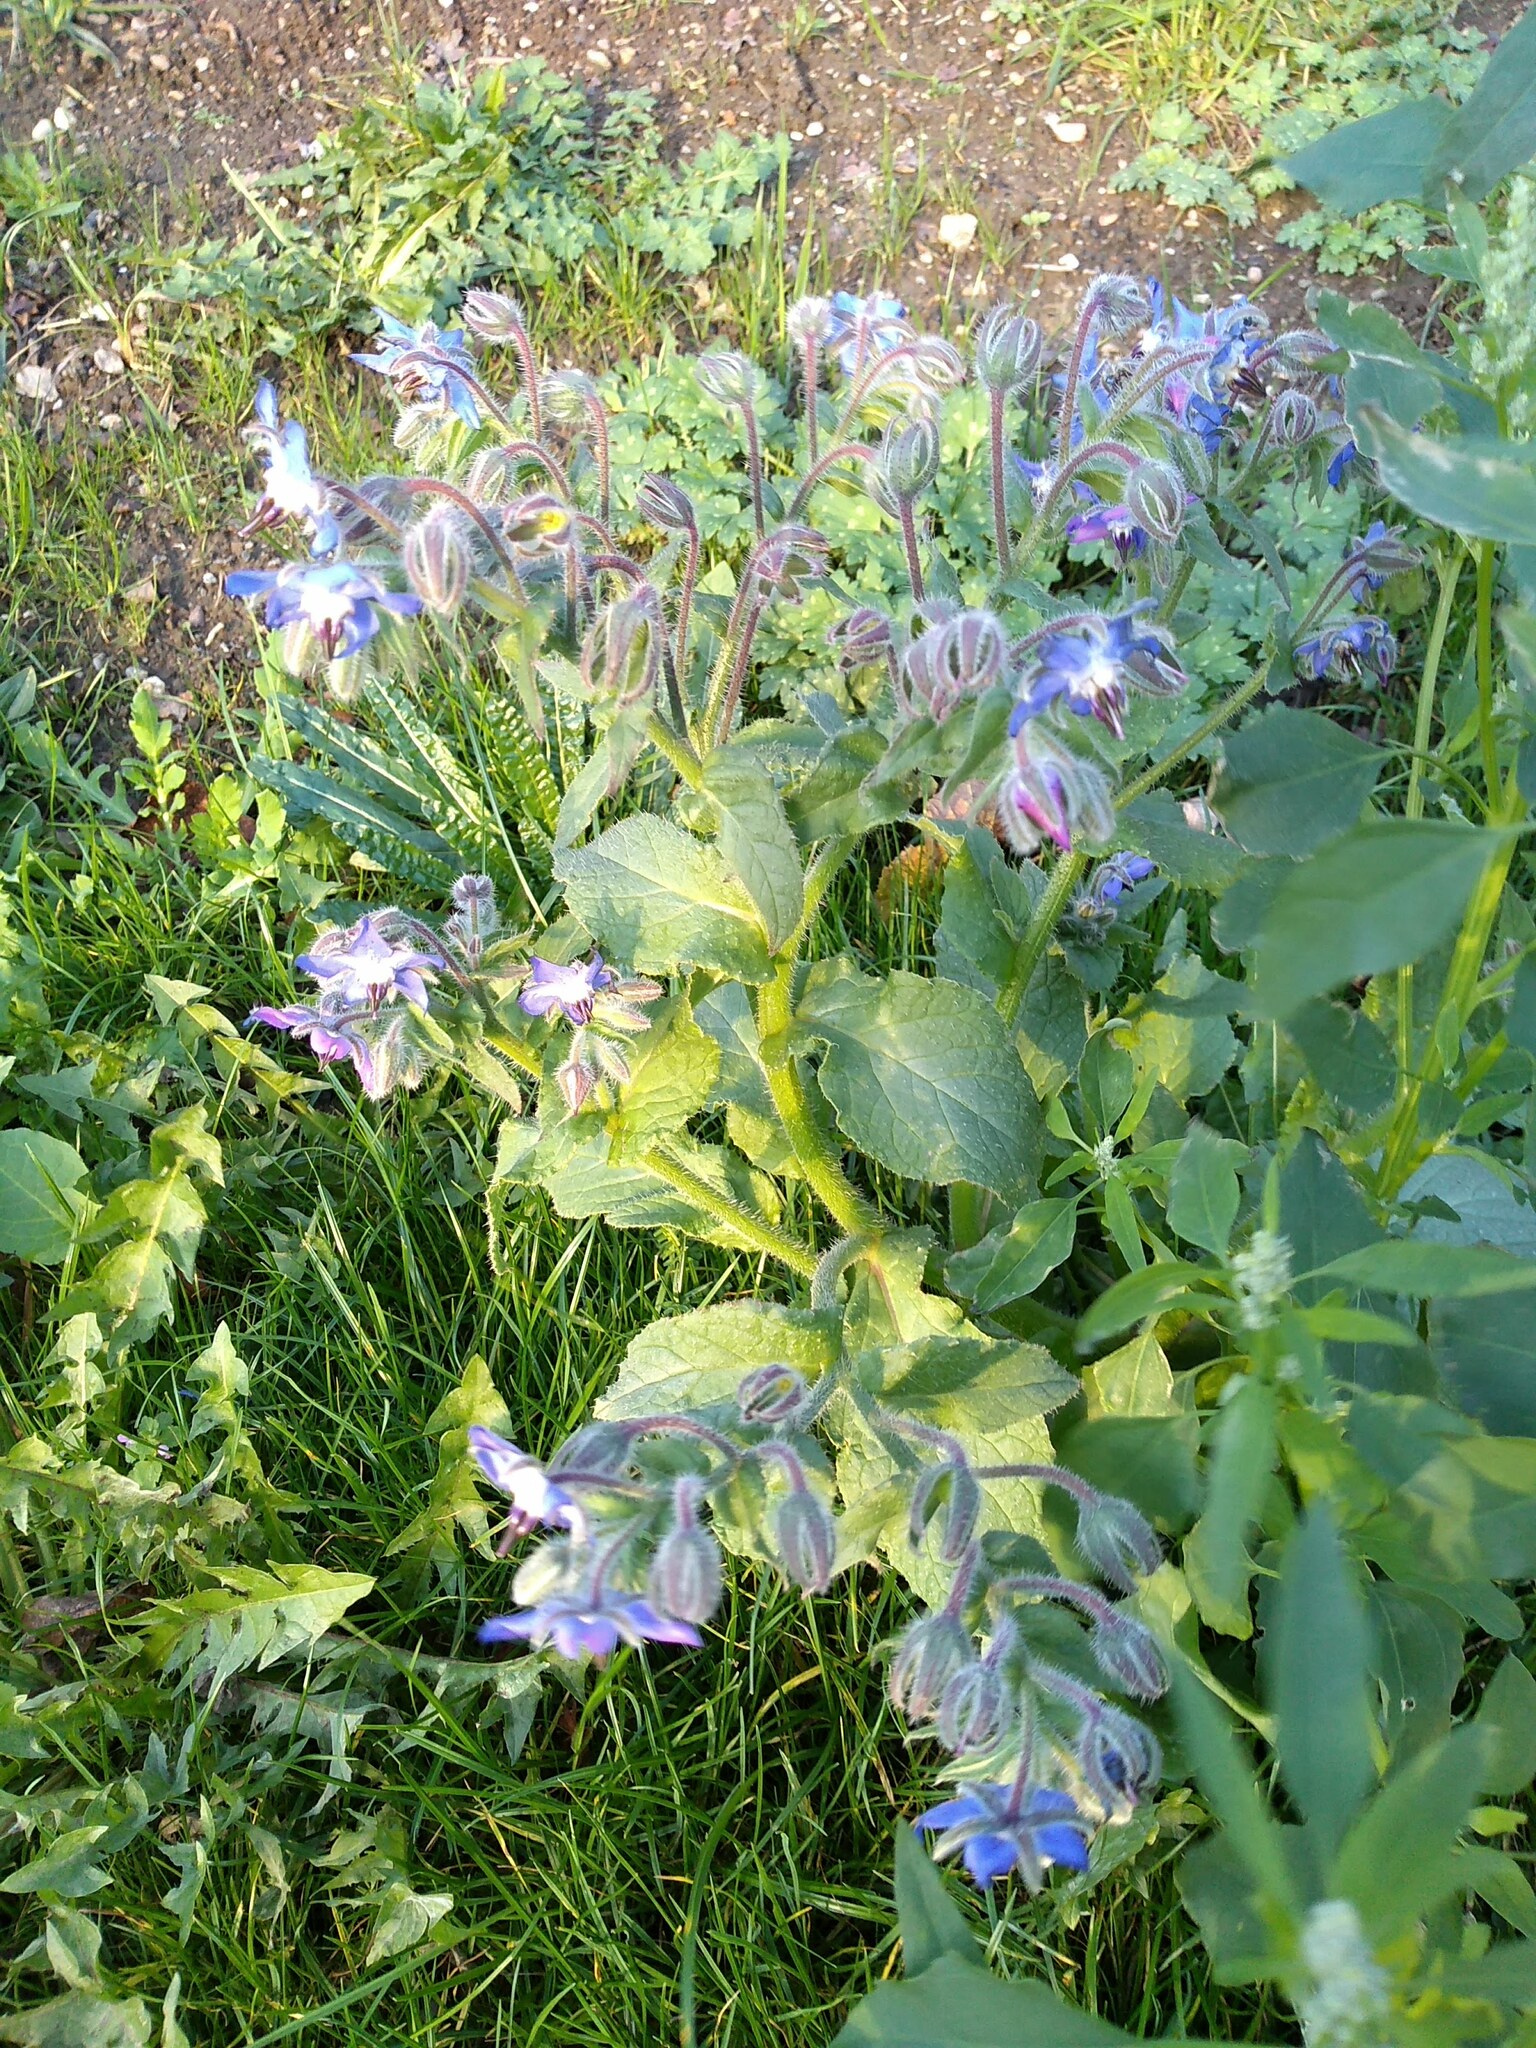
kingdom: Plantae
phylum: Tracheophyta
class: Magnoliopsida
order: Boraginales
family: Boraginaceae
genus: Borago
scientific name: Borago officinalis
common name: Borage
